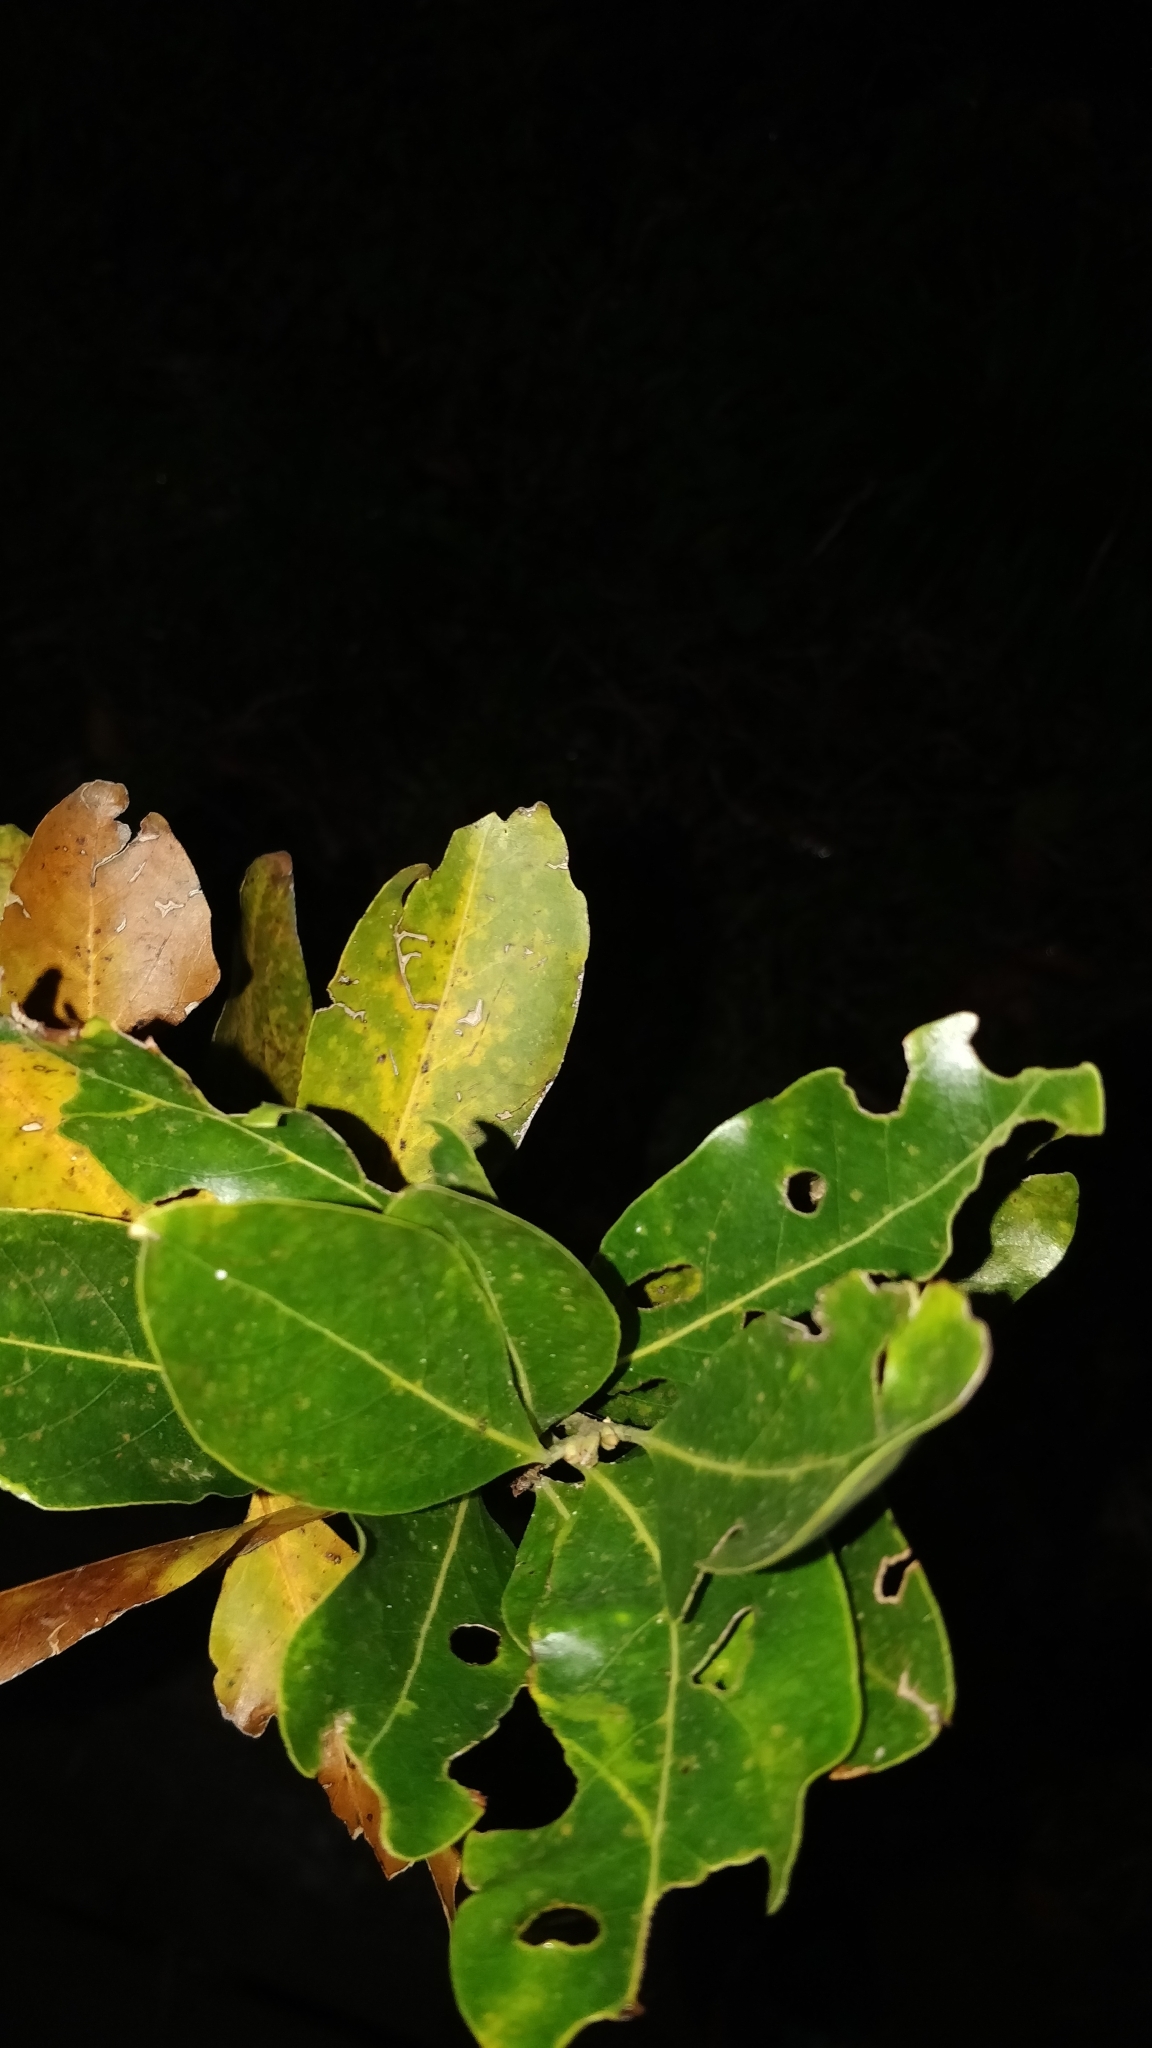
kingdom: Plantae
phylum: Tracheophyta
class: Magnoliopsida
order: Laurales
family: Lauraceae
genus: Laurus
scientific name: Laurus novocanariensis
